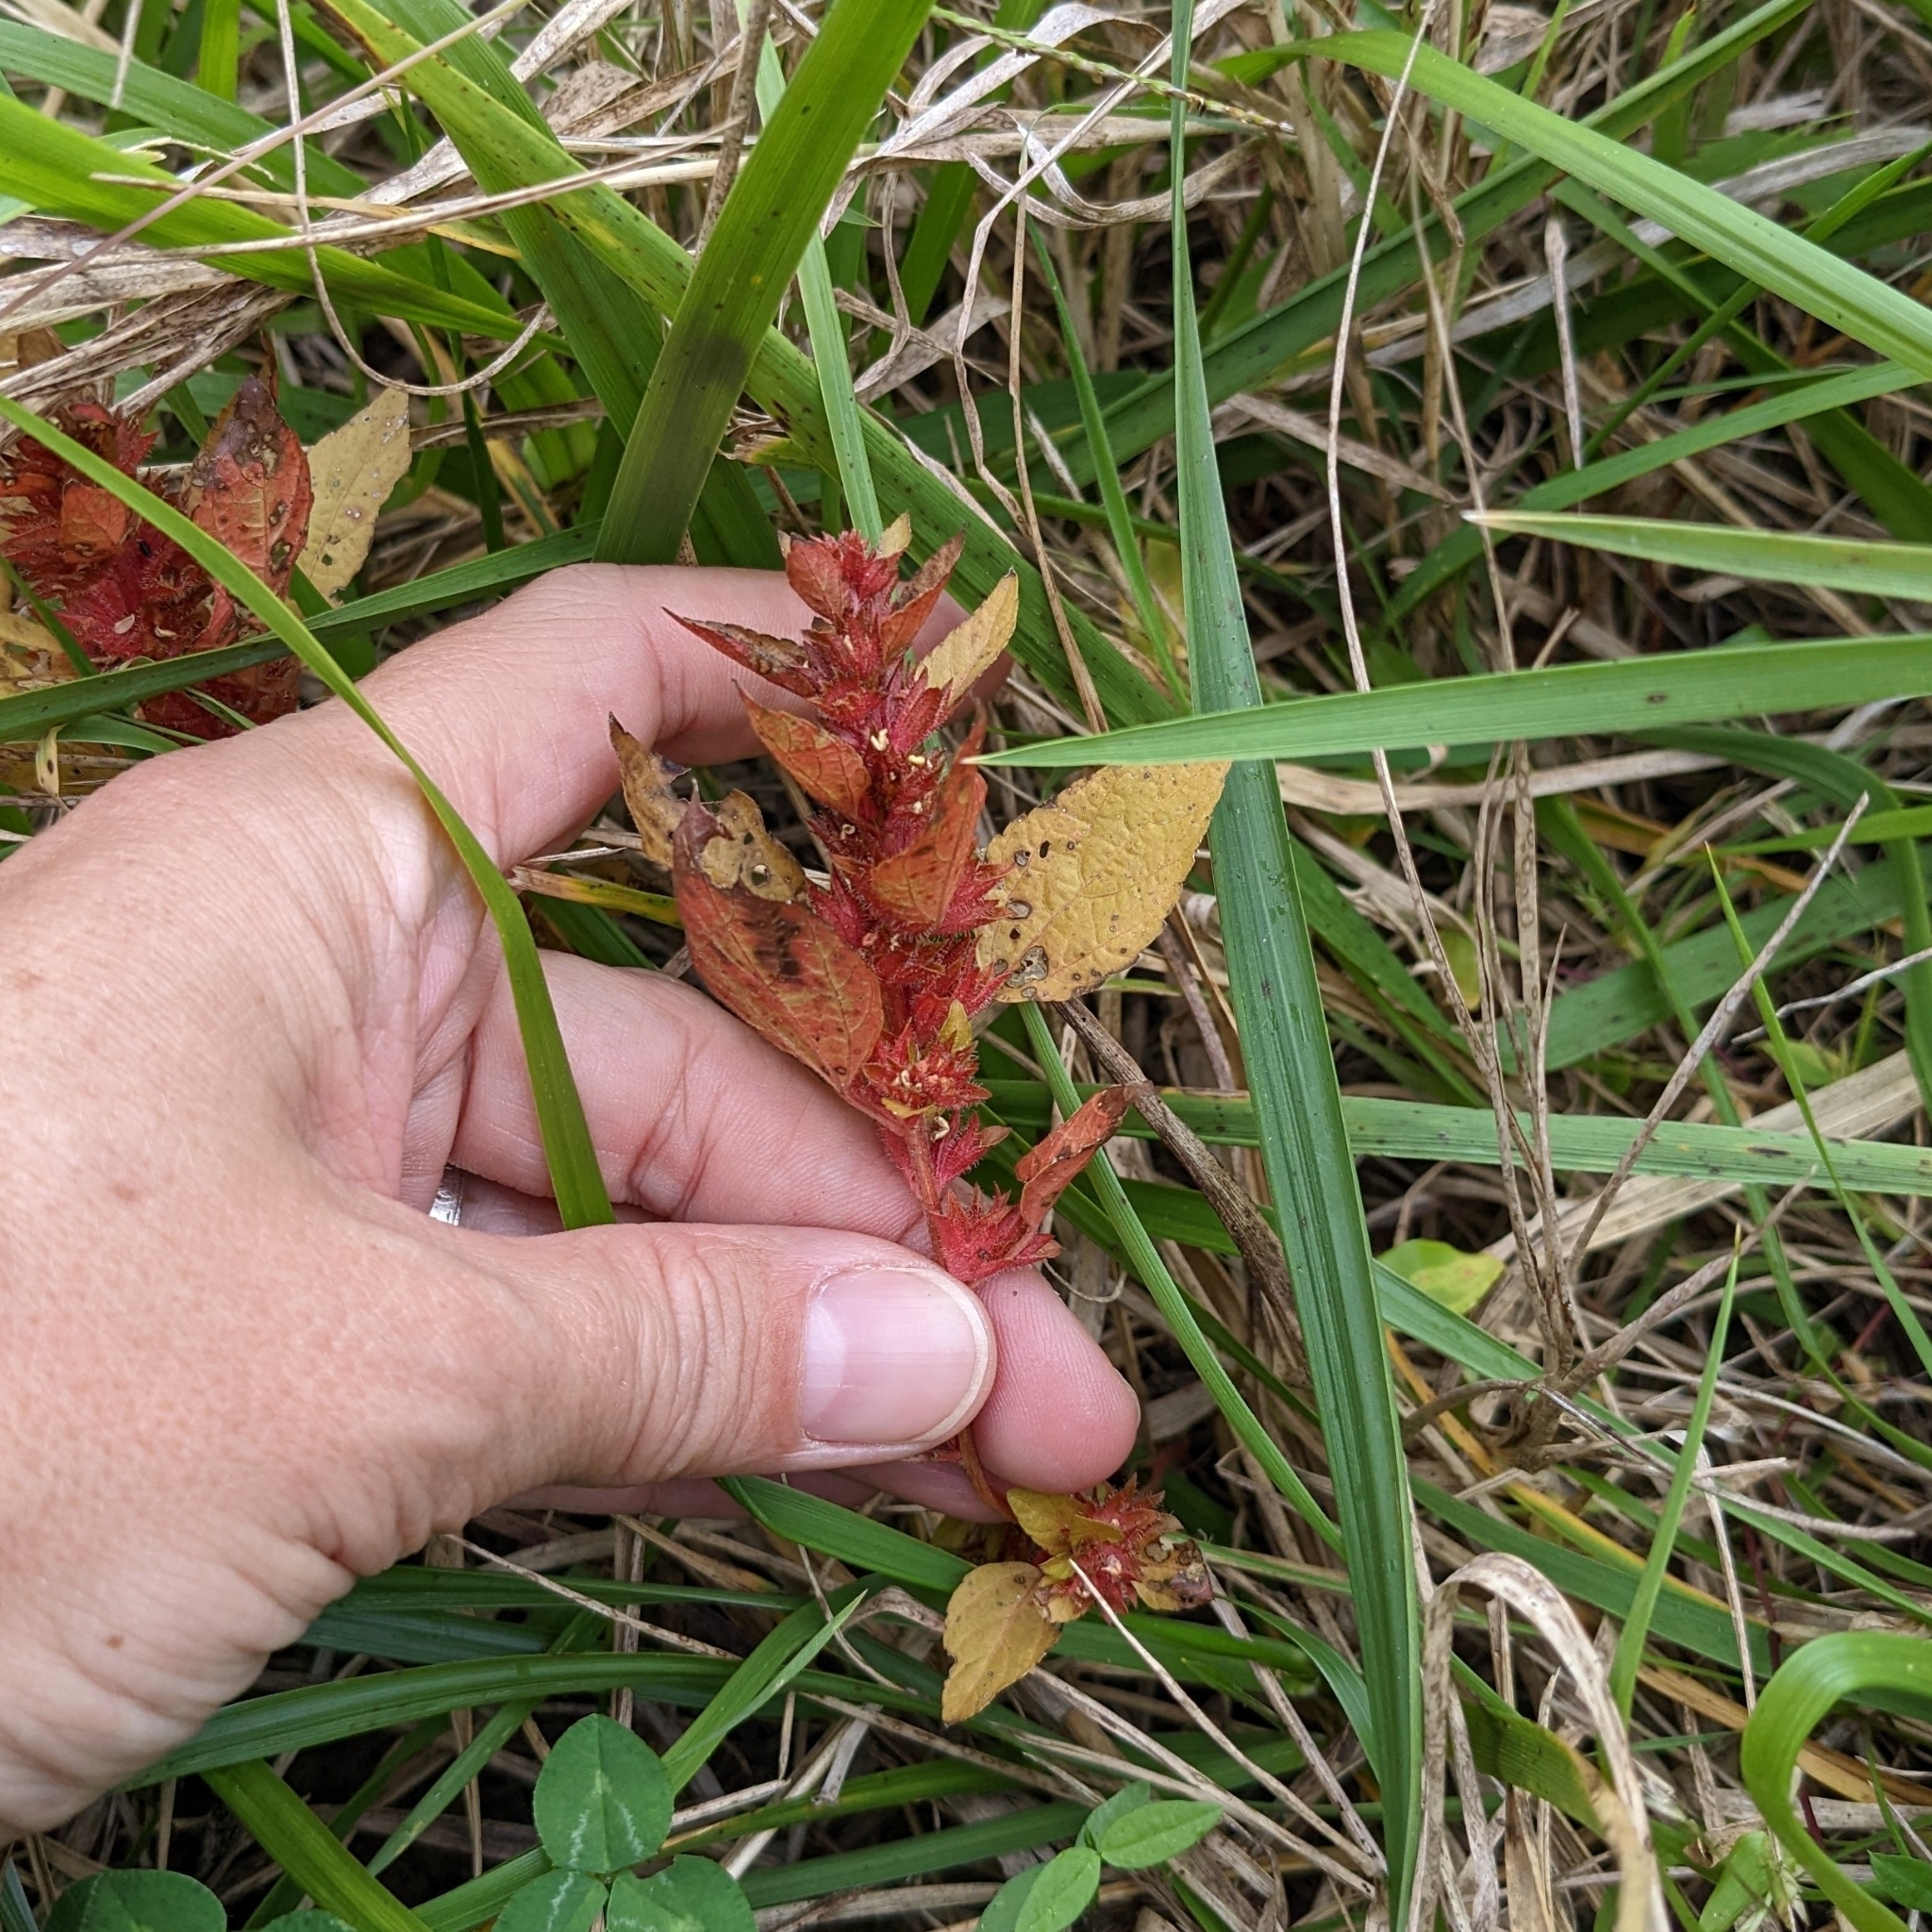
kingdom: Plantae
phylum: Tracheophyta
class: Magnoliopsida
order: Malpighiales
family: Euphorbiaceae
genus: Acalypha
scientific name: Acalypha gracilens
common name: Slender three-seeded mercury
